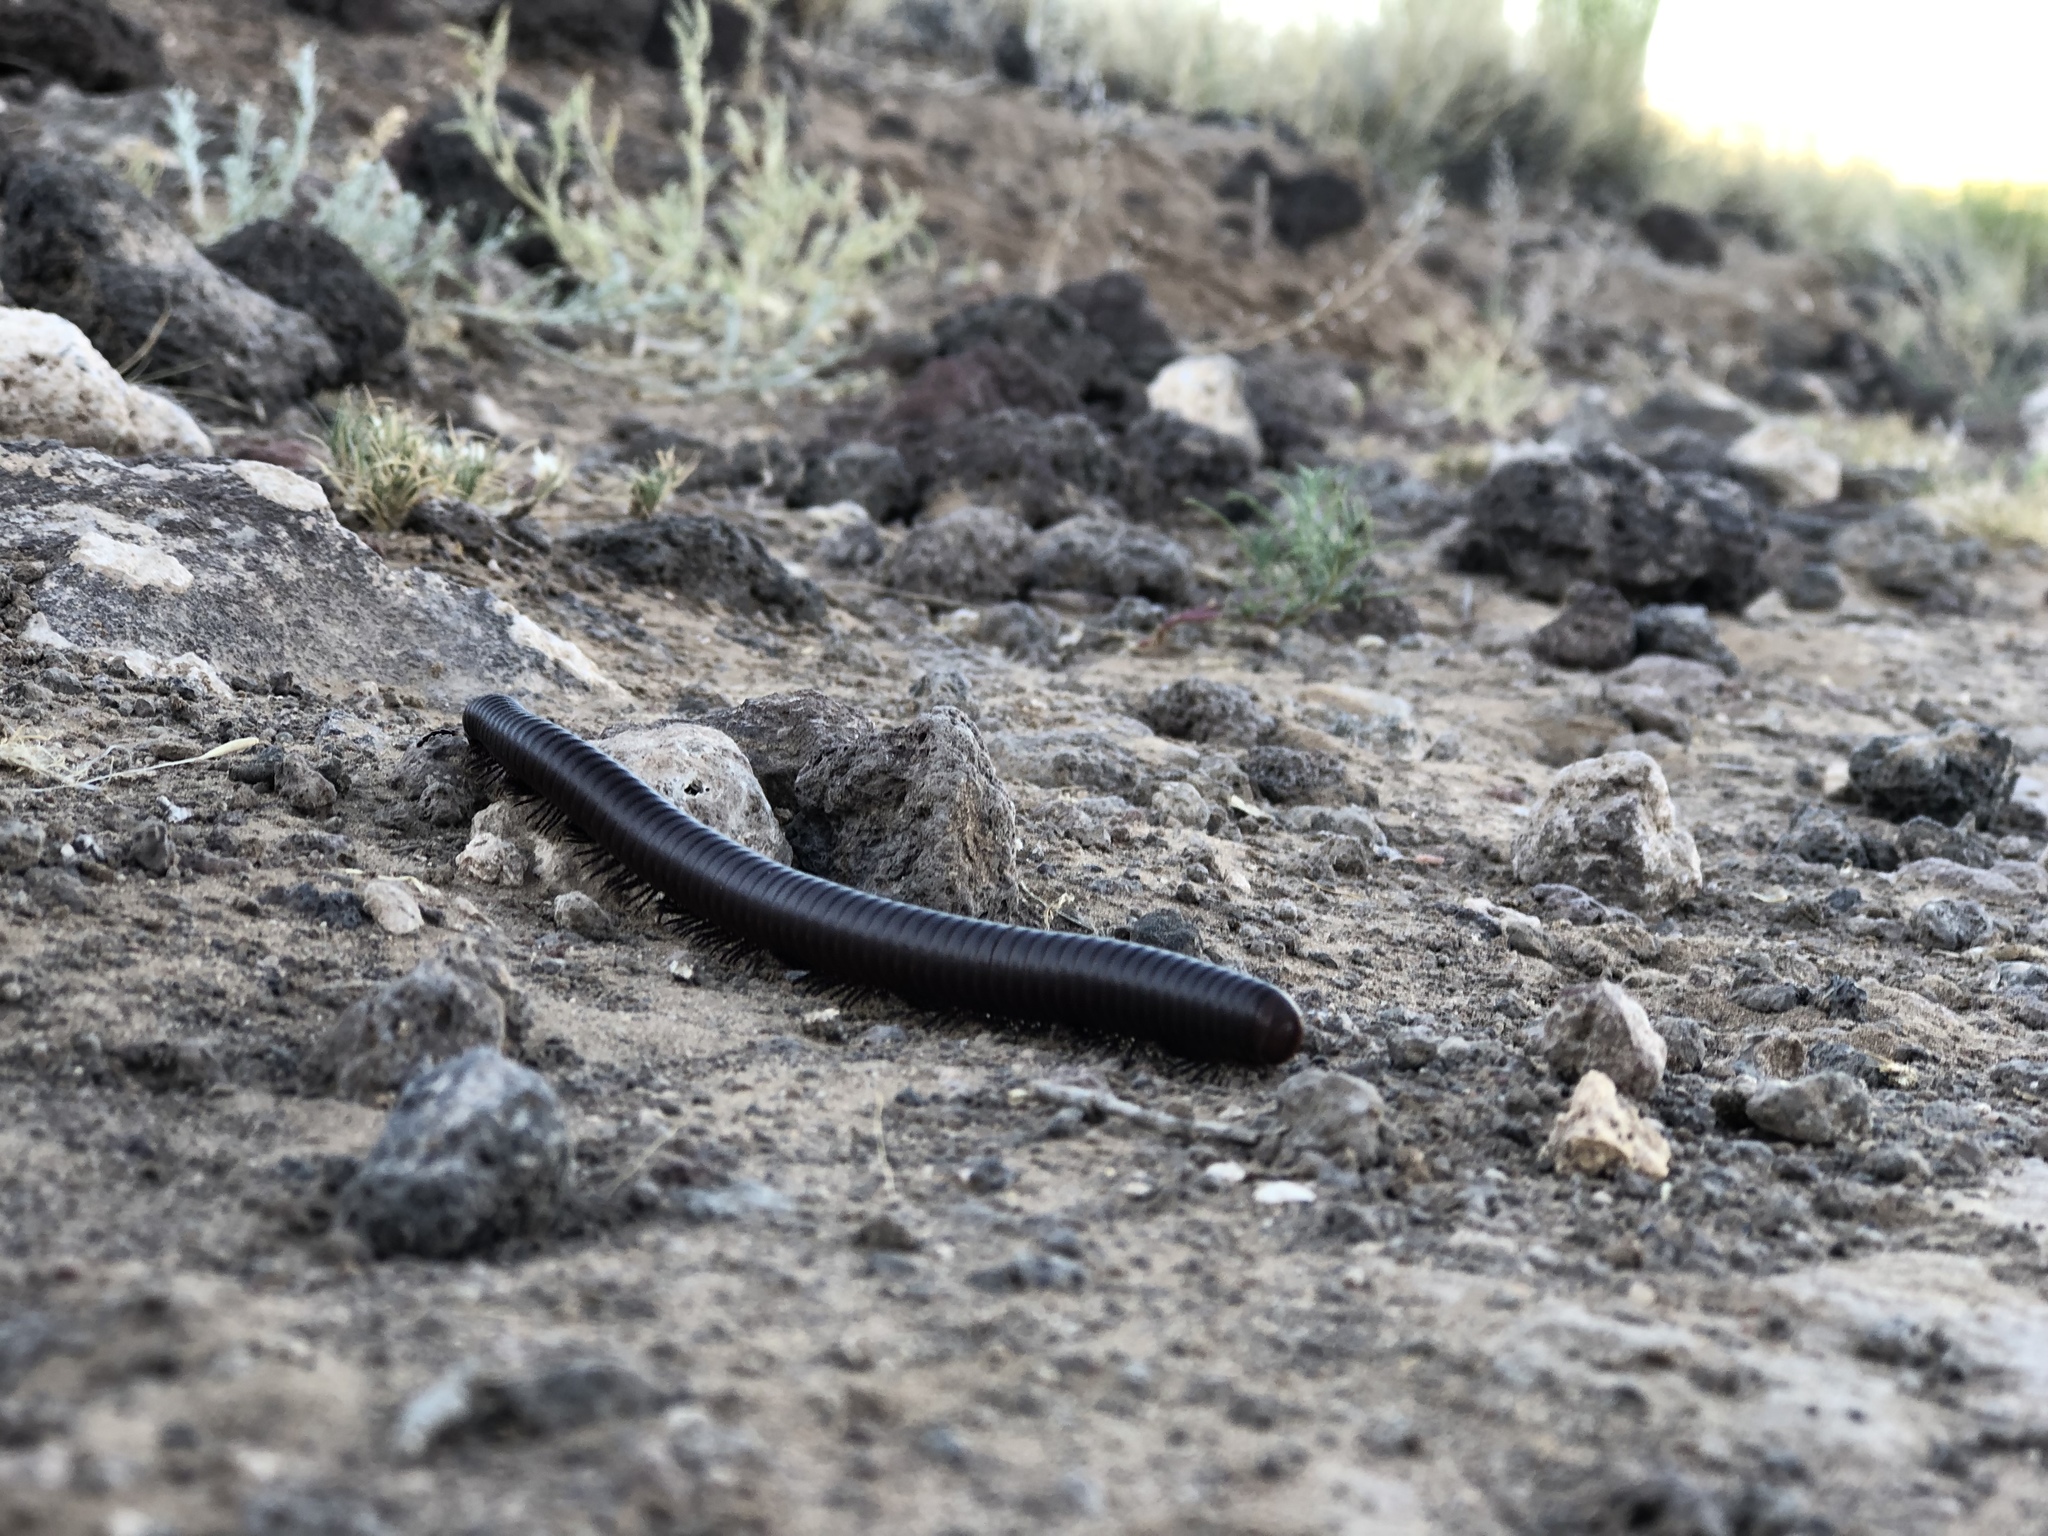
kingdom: Animalia
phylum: Arthropoda
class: Diplopoda
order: Spirostreptida
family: Spirostreptidae
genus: Orthoporus
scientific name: Orthoporus ornatus
